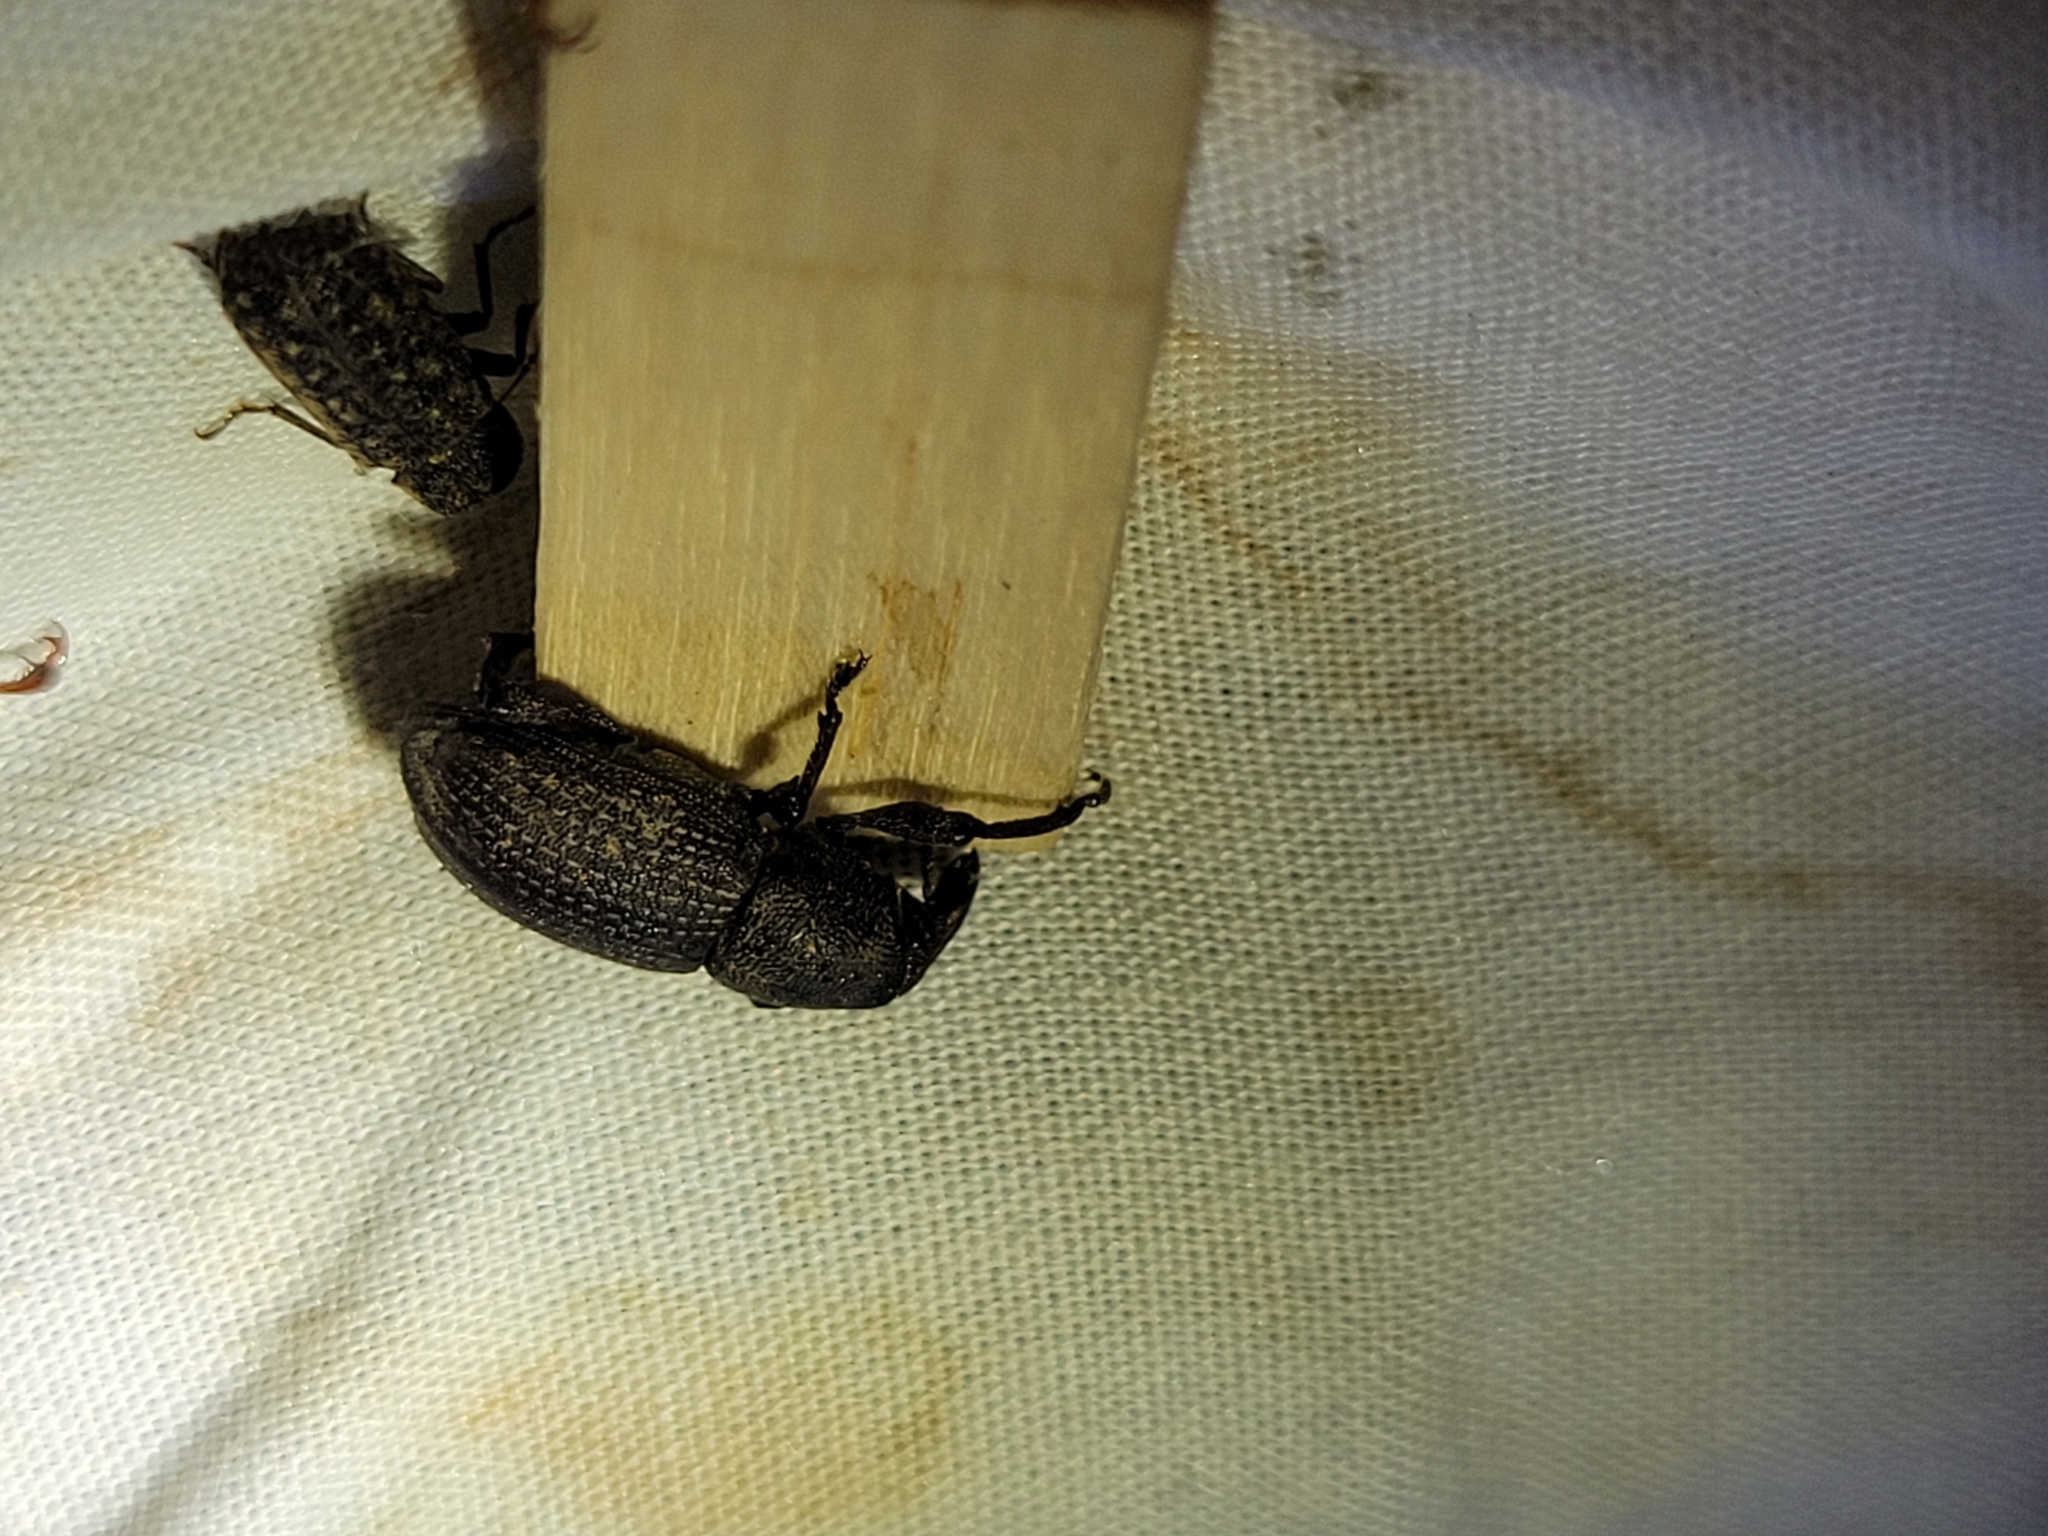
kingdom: Animalia
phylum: Arthropoda
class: Insecta
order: Coleoptera
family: Curculionidae
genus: Pachylobius
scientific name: Pachylobius picivorus
